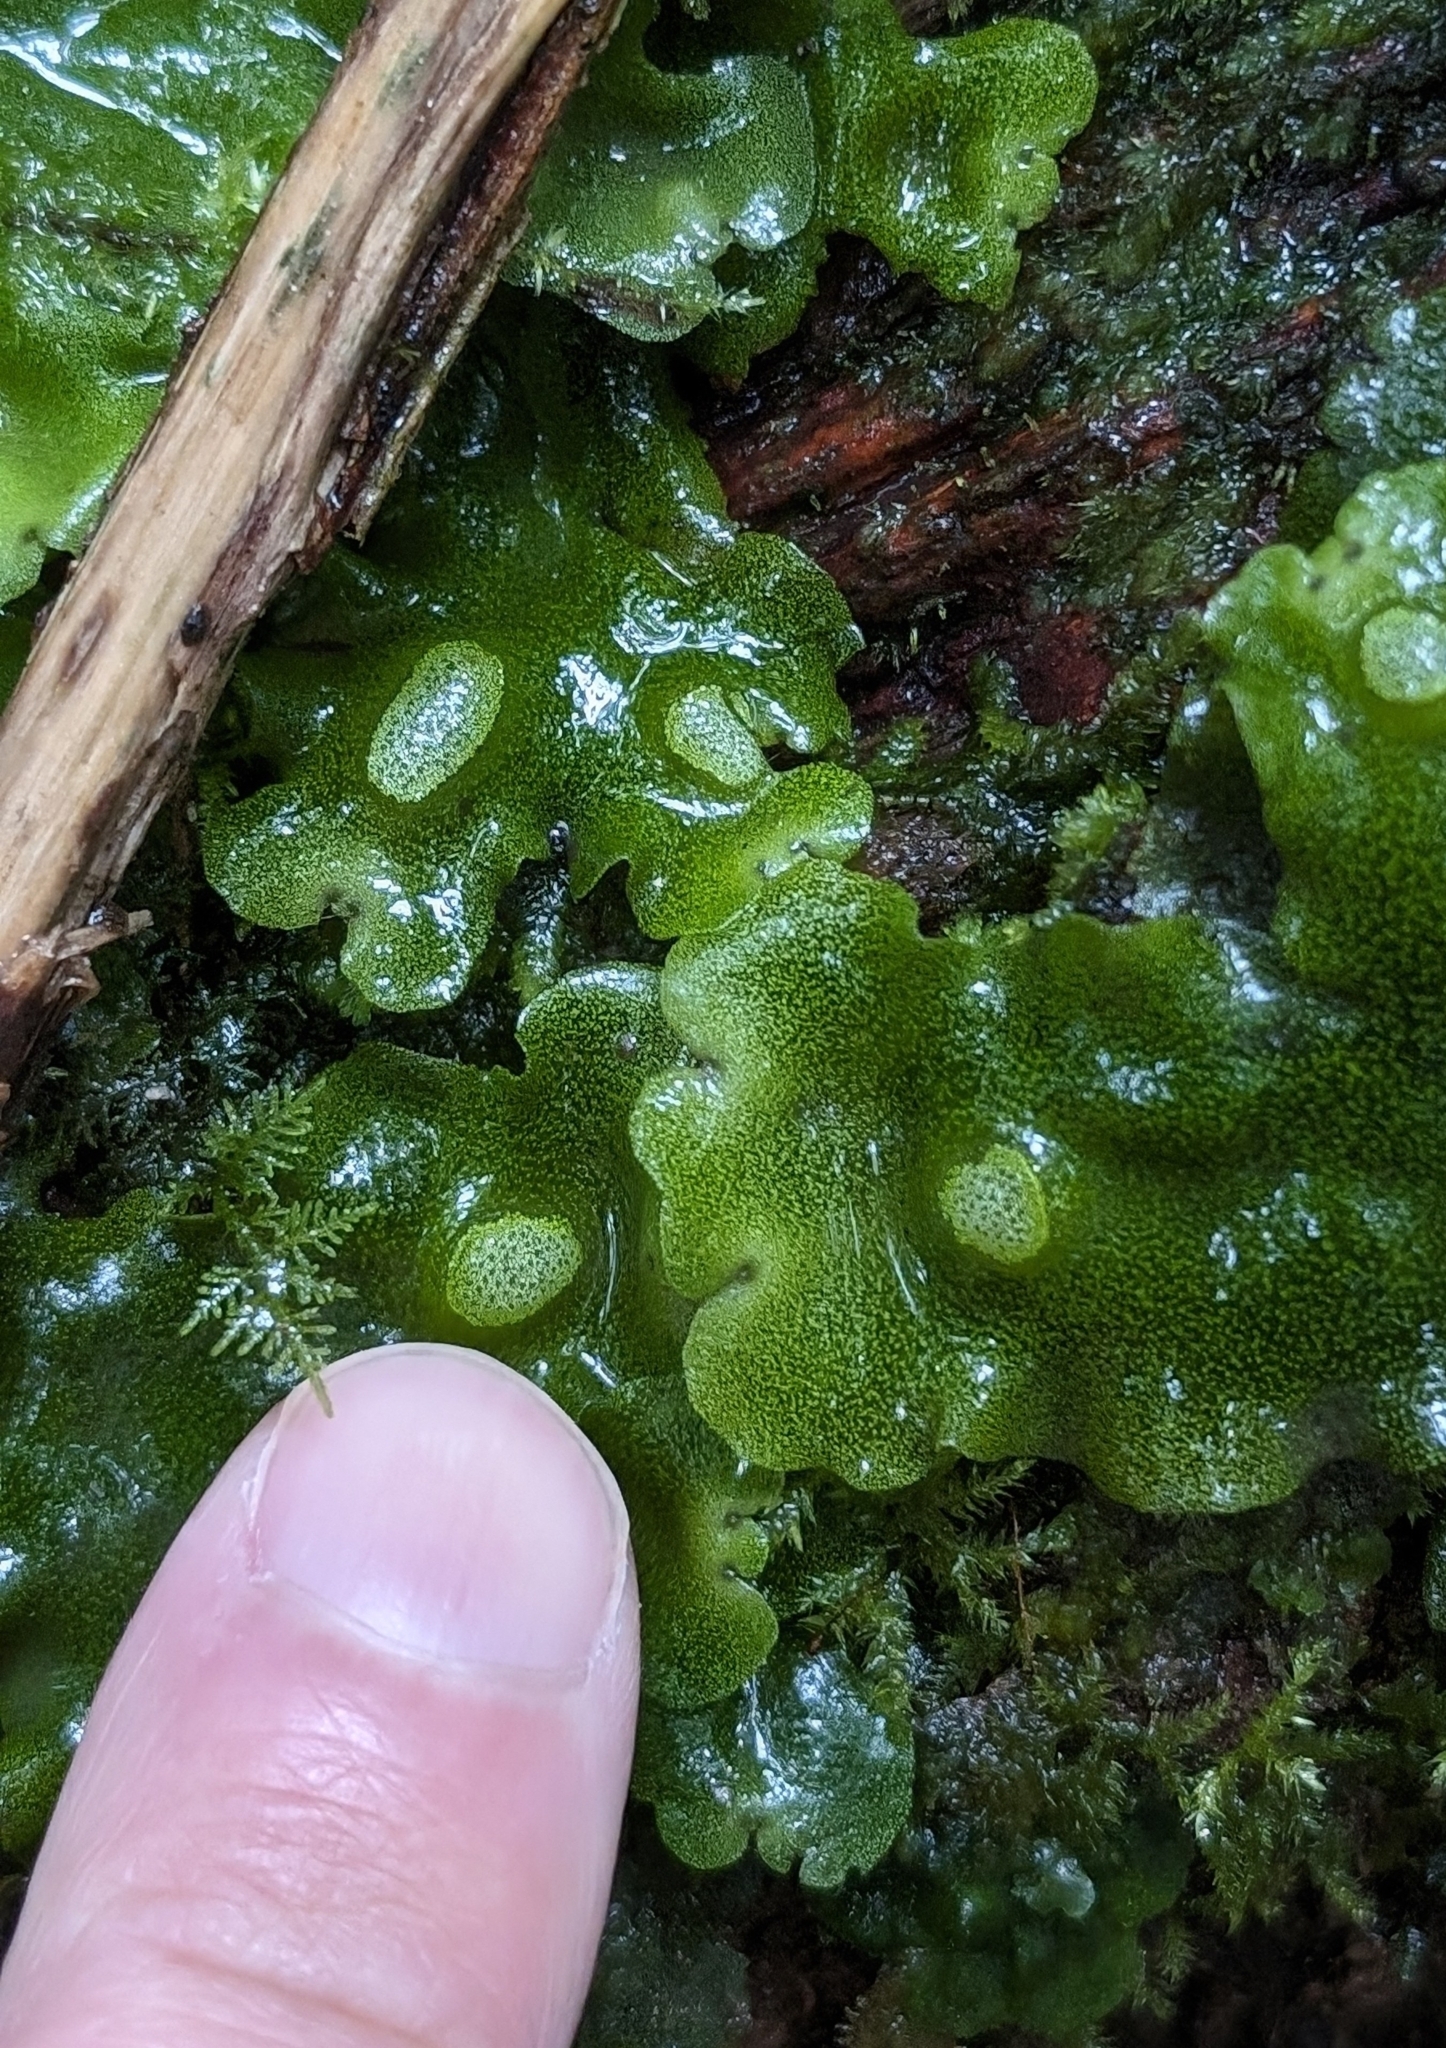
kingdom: Plantae
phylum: Marchantiophyta
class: Marchantiopsida
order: Marchantiales
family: Monocleaceae
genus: Monoclea
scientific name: Monoclea gottschei
